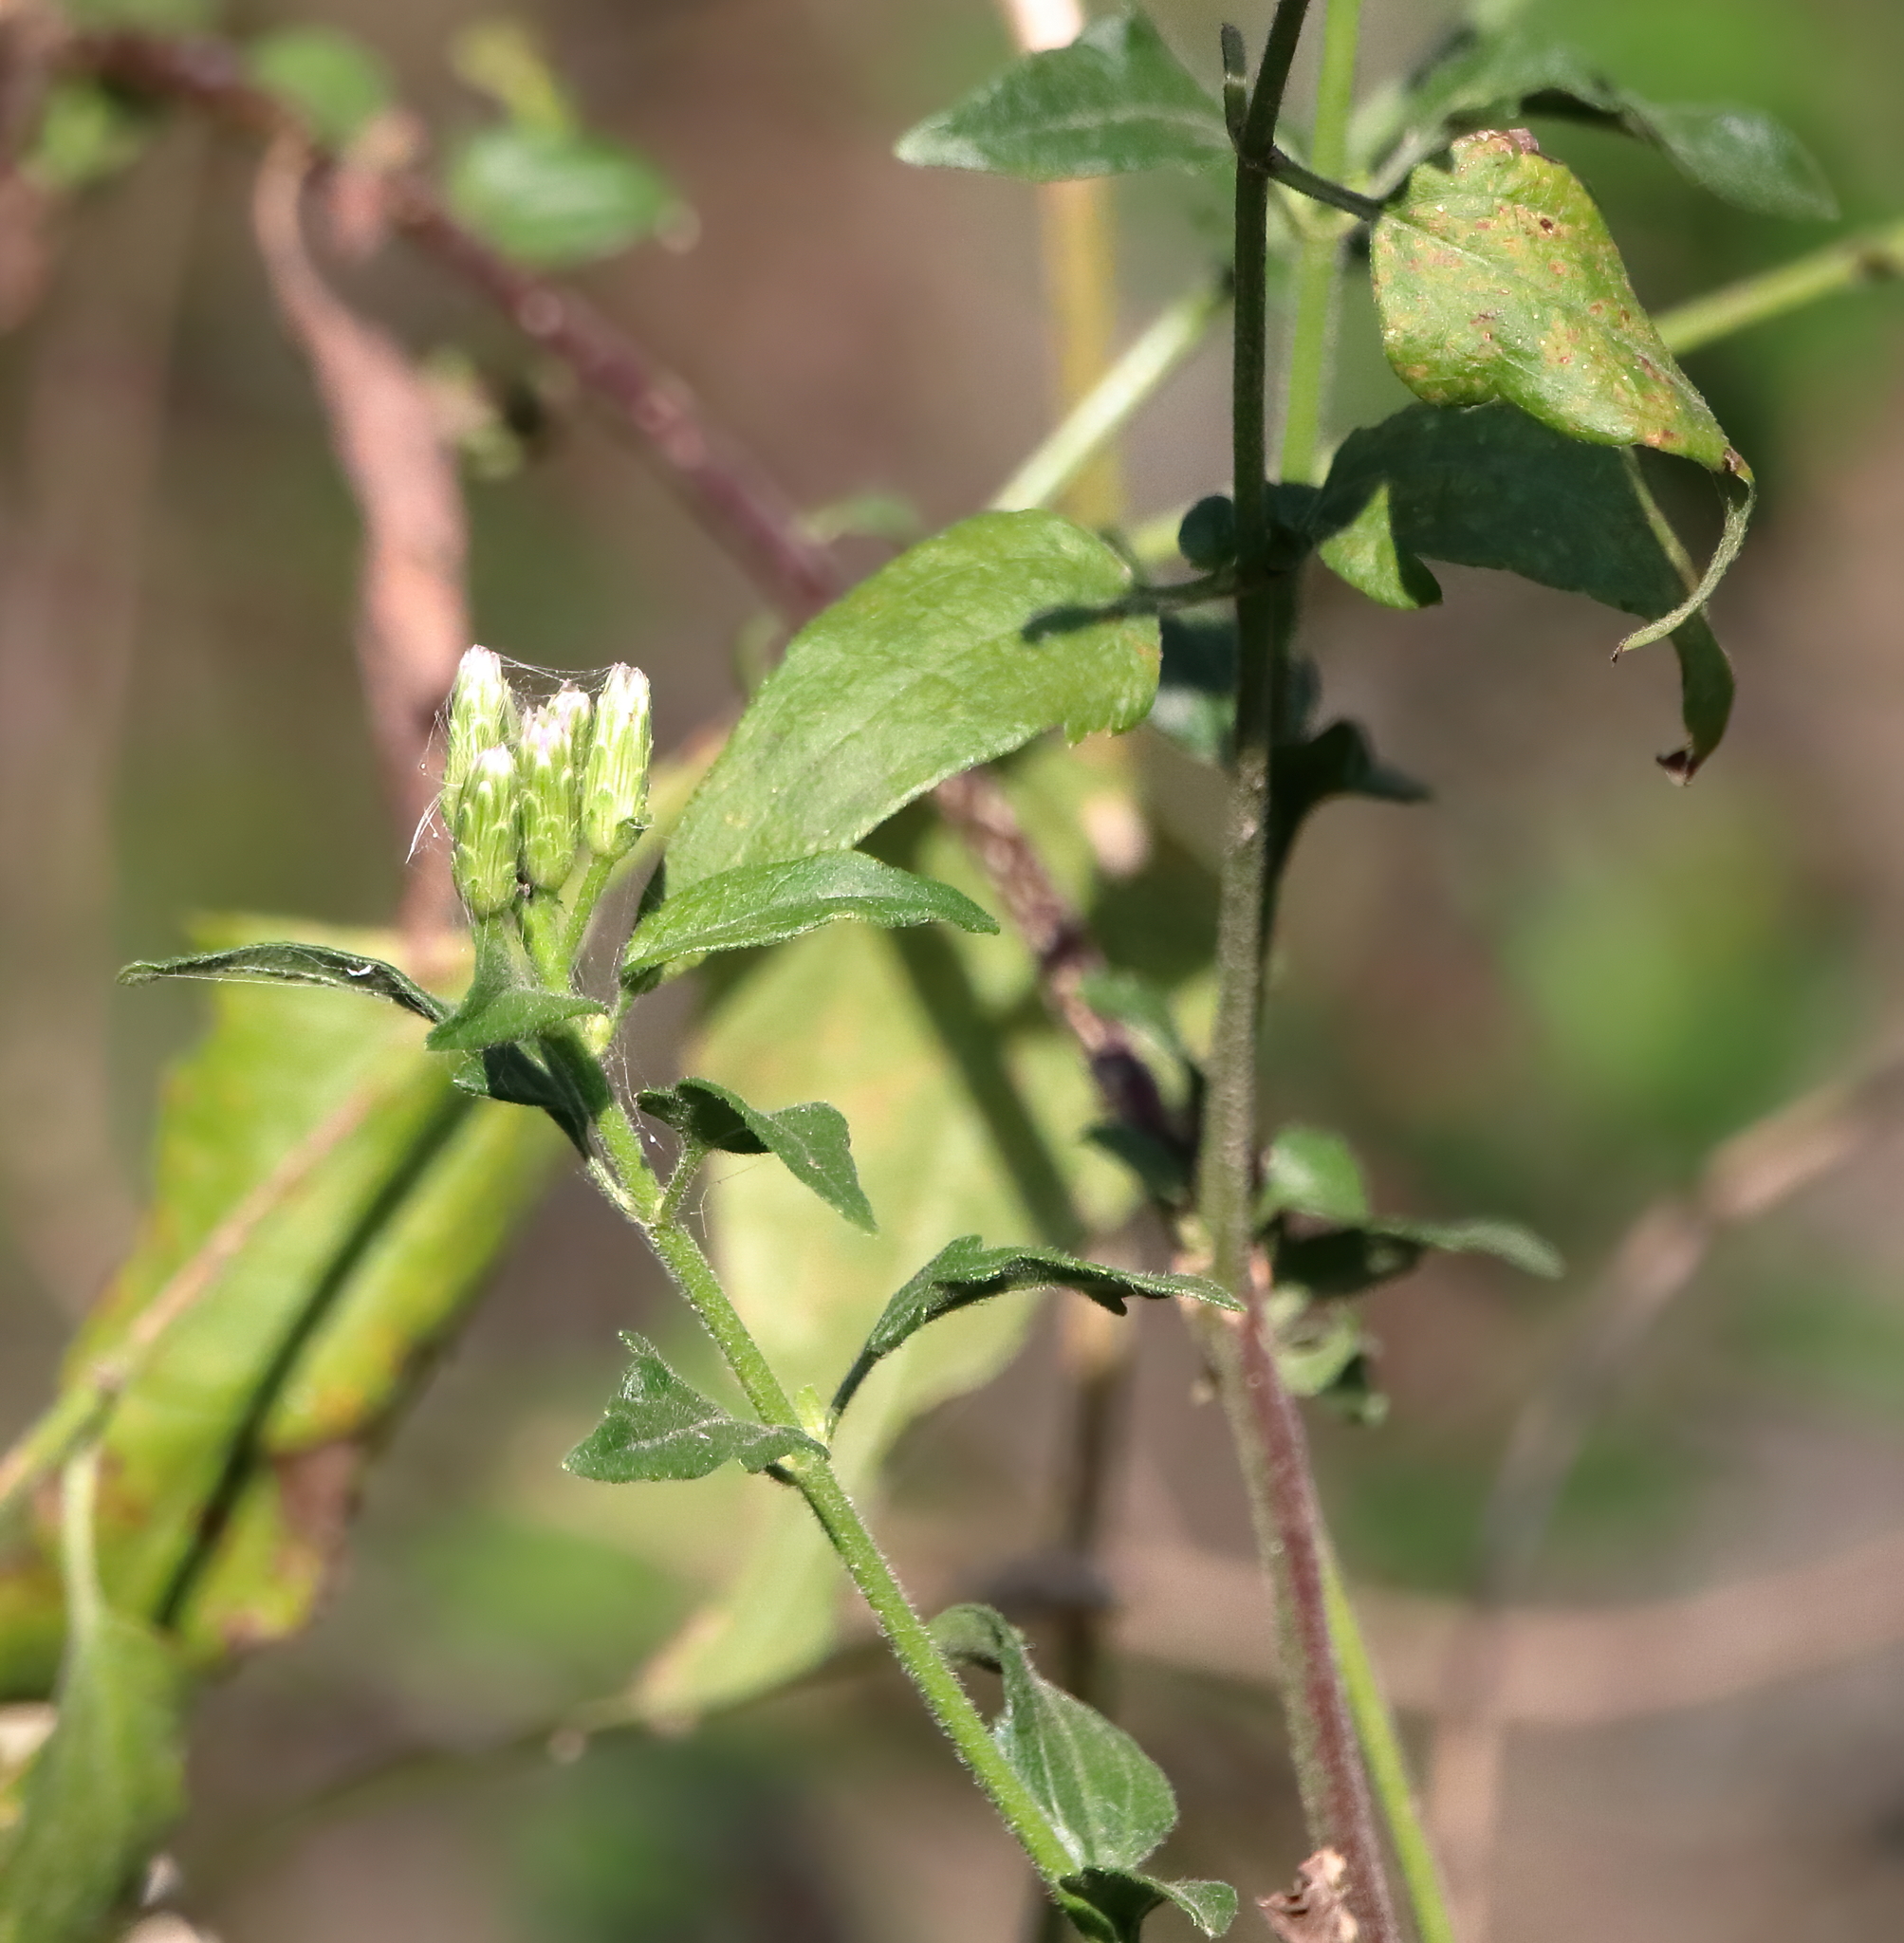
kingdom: Plantae
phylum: Tracheophyta
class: Magnoliopsida
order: Asterales
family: Asteraceae
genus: Chromolaena
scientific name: Chromolaena odorata
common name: Siamweed
